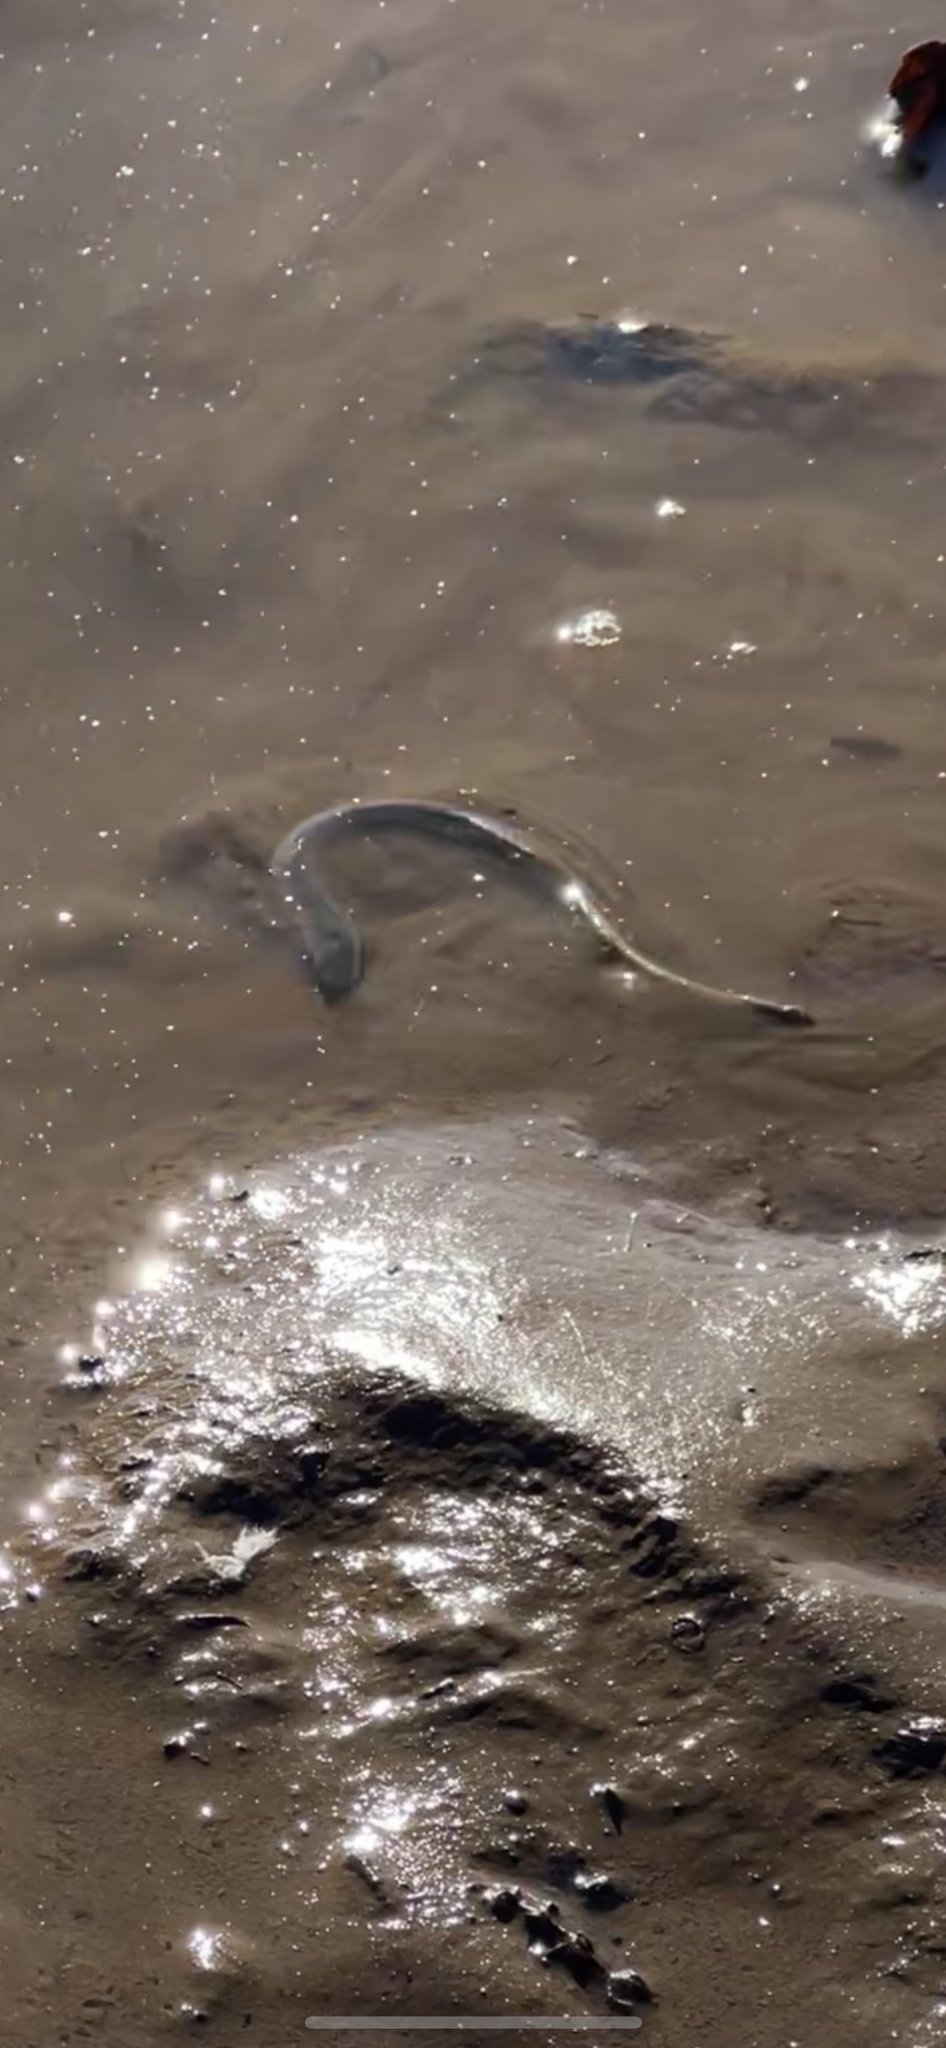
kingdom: Animalia
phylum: Chordata
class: Petromyzonti
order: Petromyzontiformes
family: Petromyzontidae
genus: Petromyzon
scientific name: Petromyzon marinus
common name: Sea lamprey
